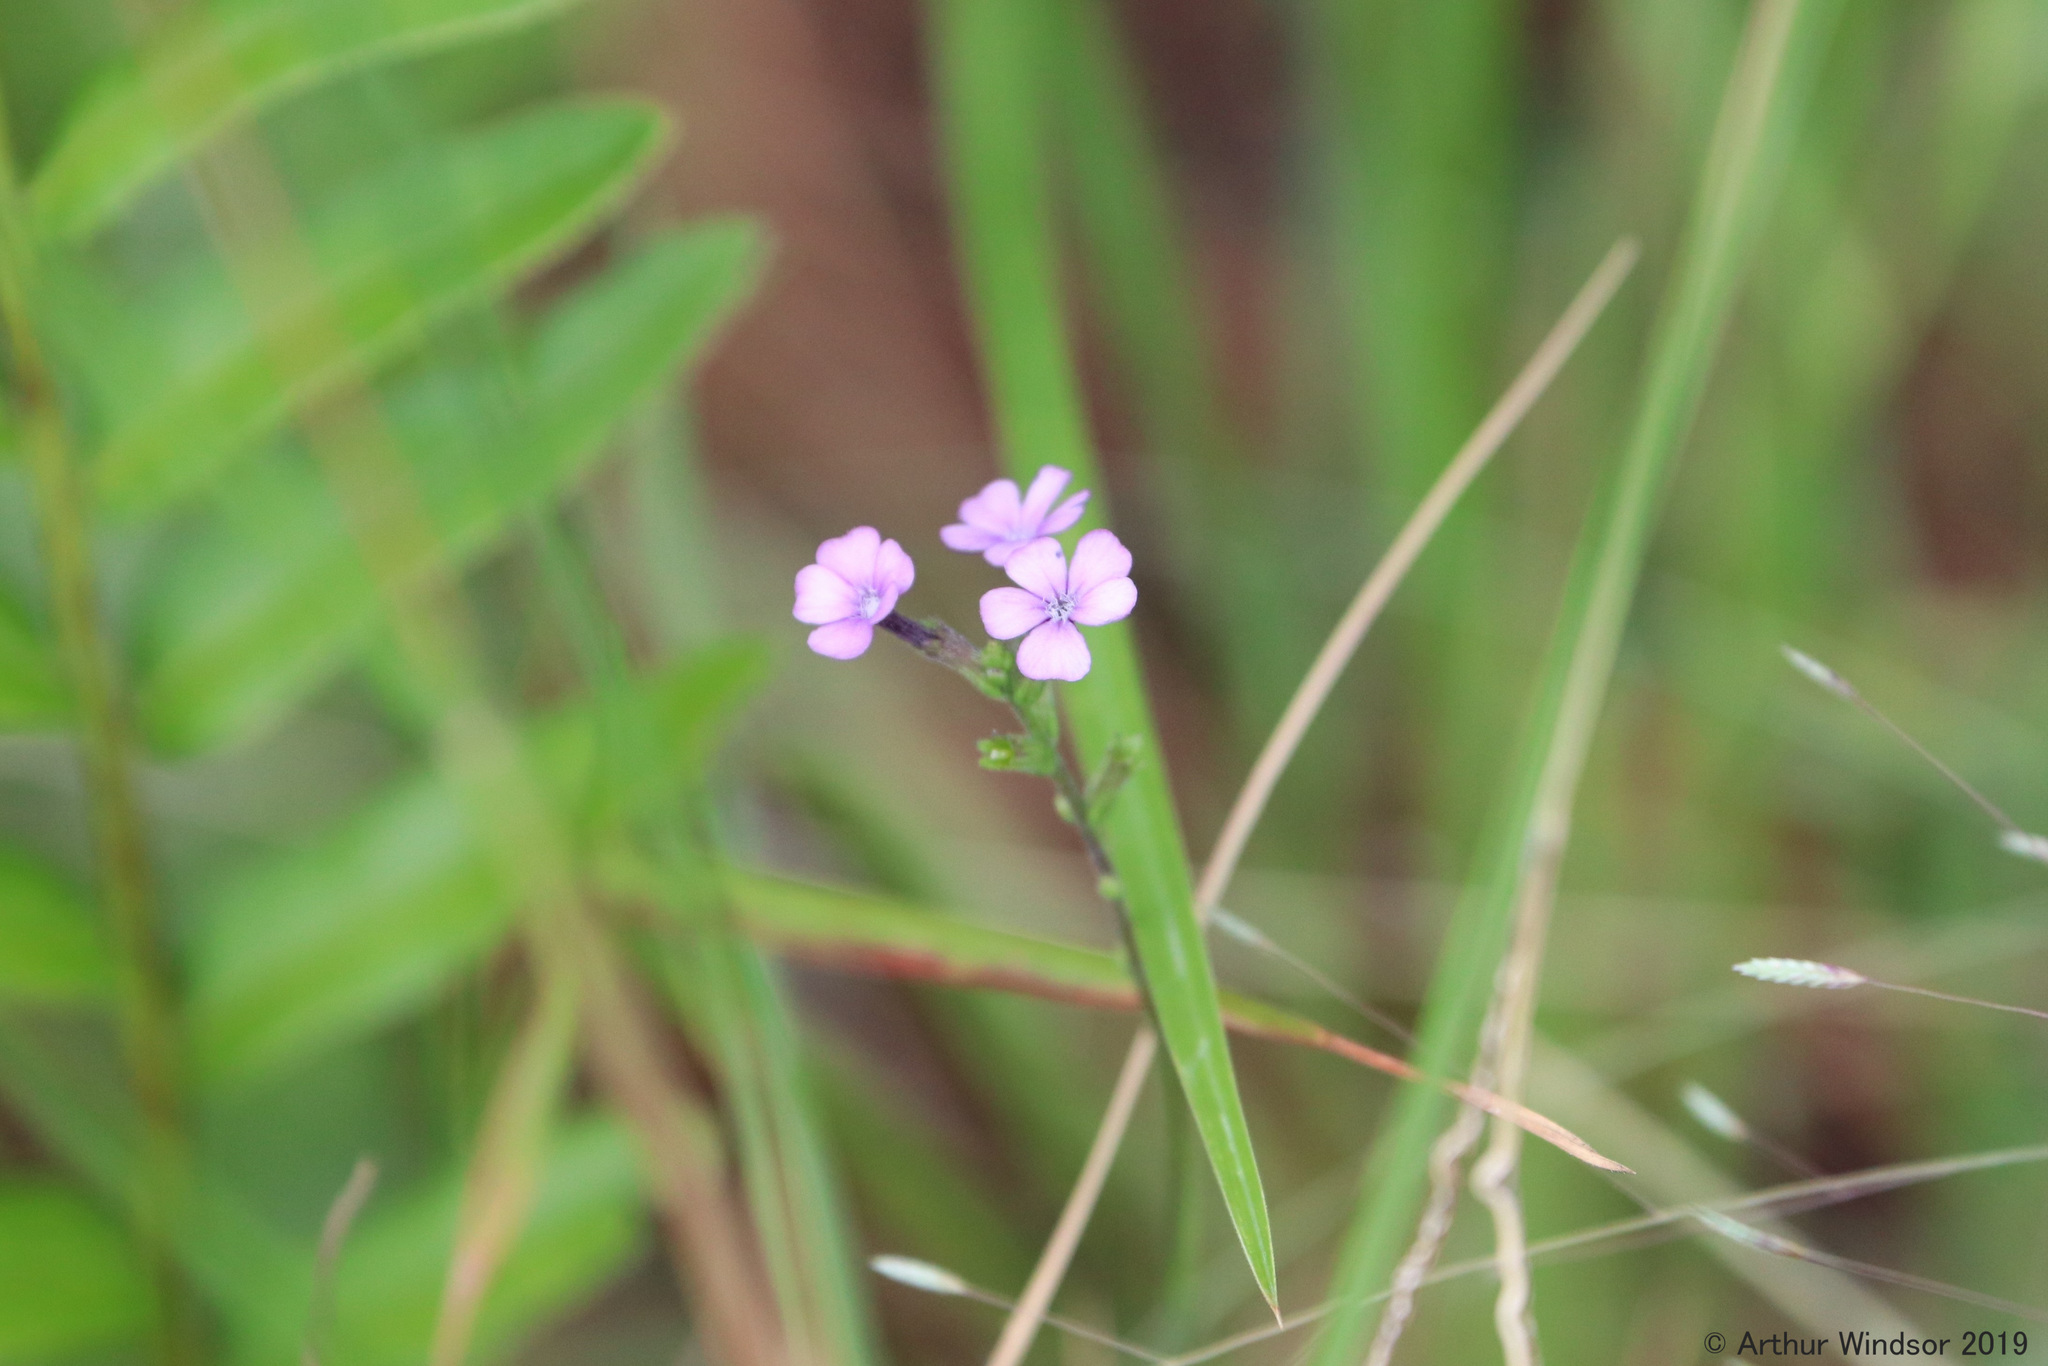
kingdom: Plantae
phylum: Tracheophyta
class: Magnoliopsida
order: Lamiales
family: Orobanchaceae
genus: Buchnera
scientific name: Buchnera floridana
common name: Florida bluehearts
